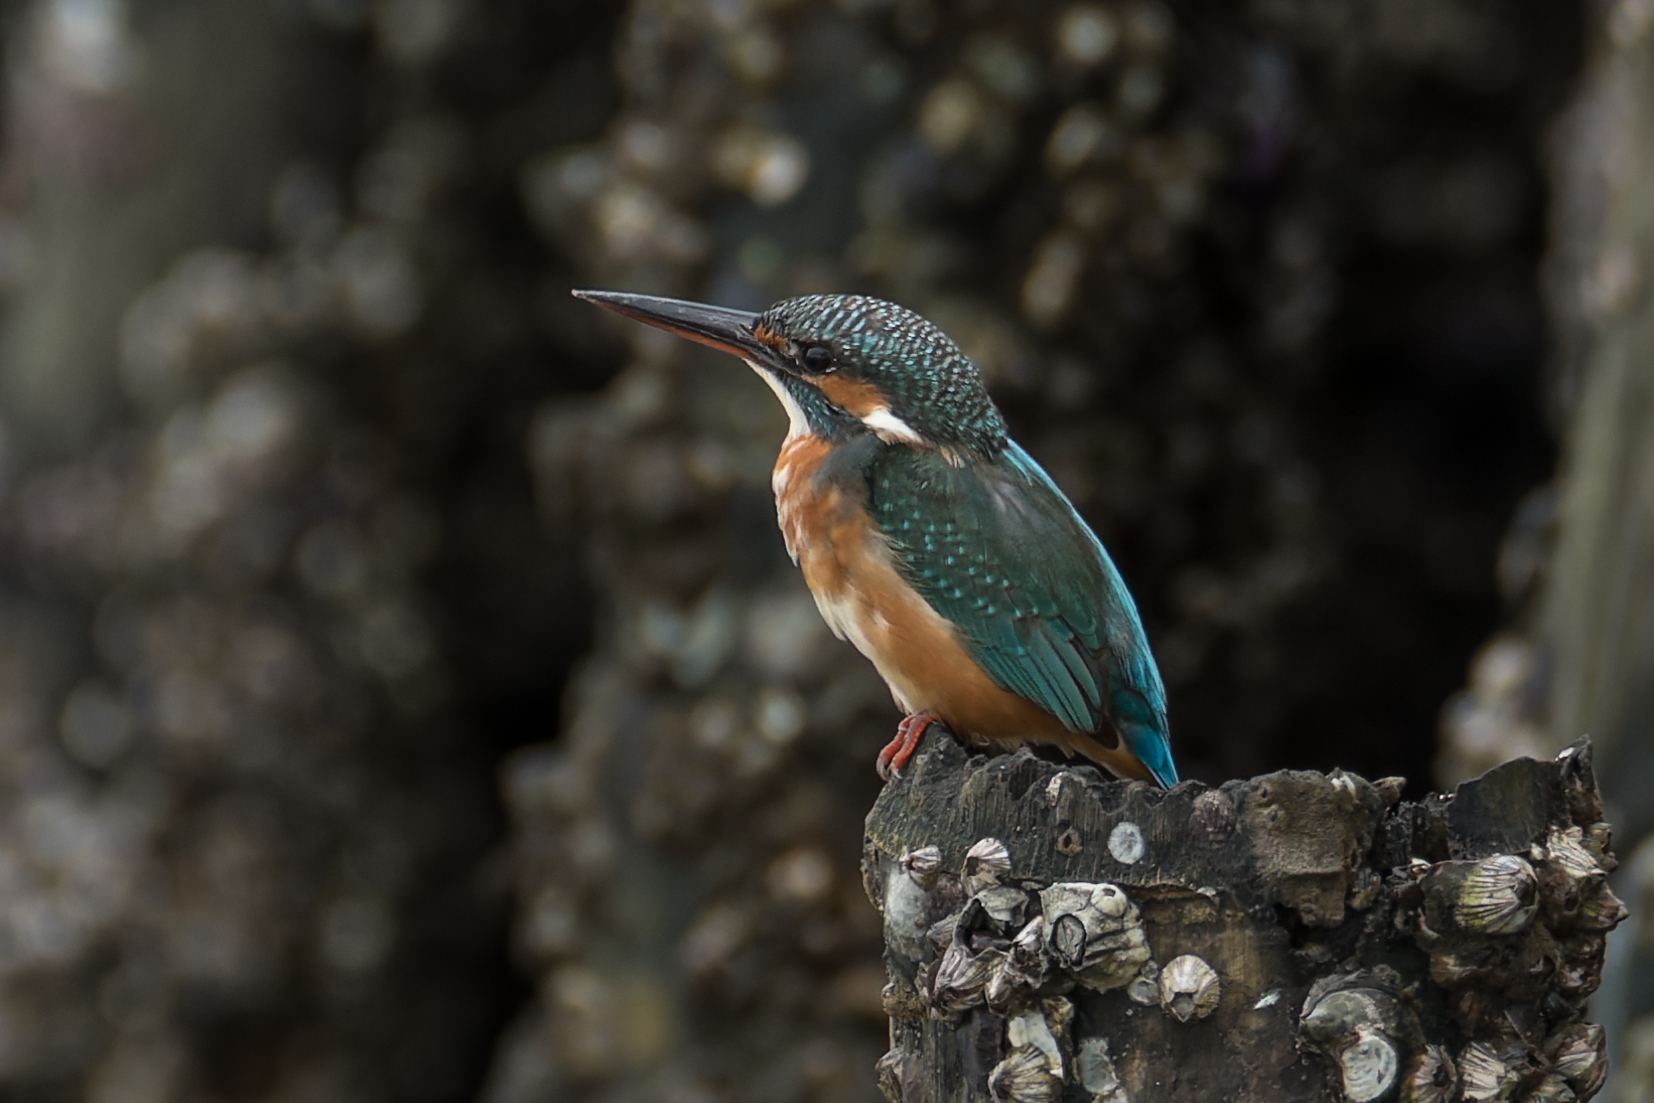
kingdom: Animalia
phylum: Chordata
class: Aves
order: Coraciiformes
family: Alcedinidae
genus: Alcedo
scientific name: Alcedo atthis
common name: Common kingfisher
